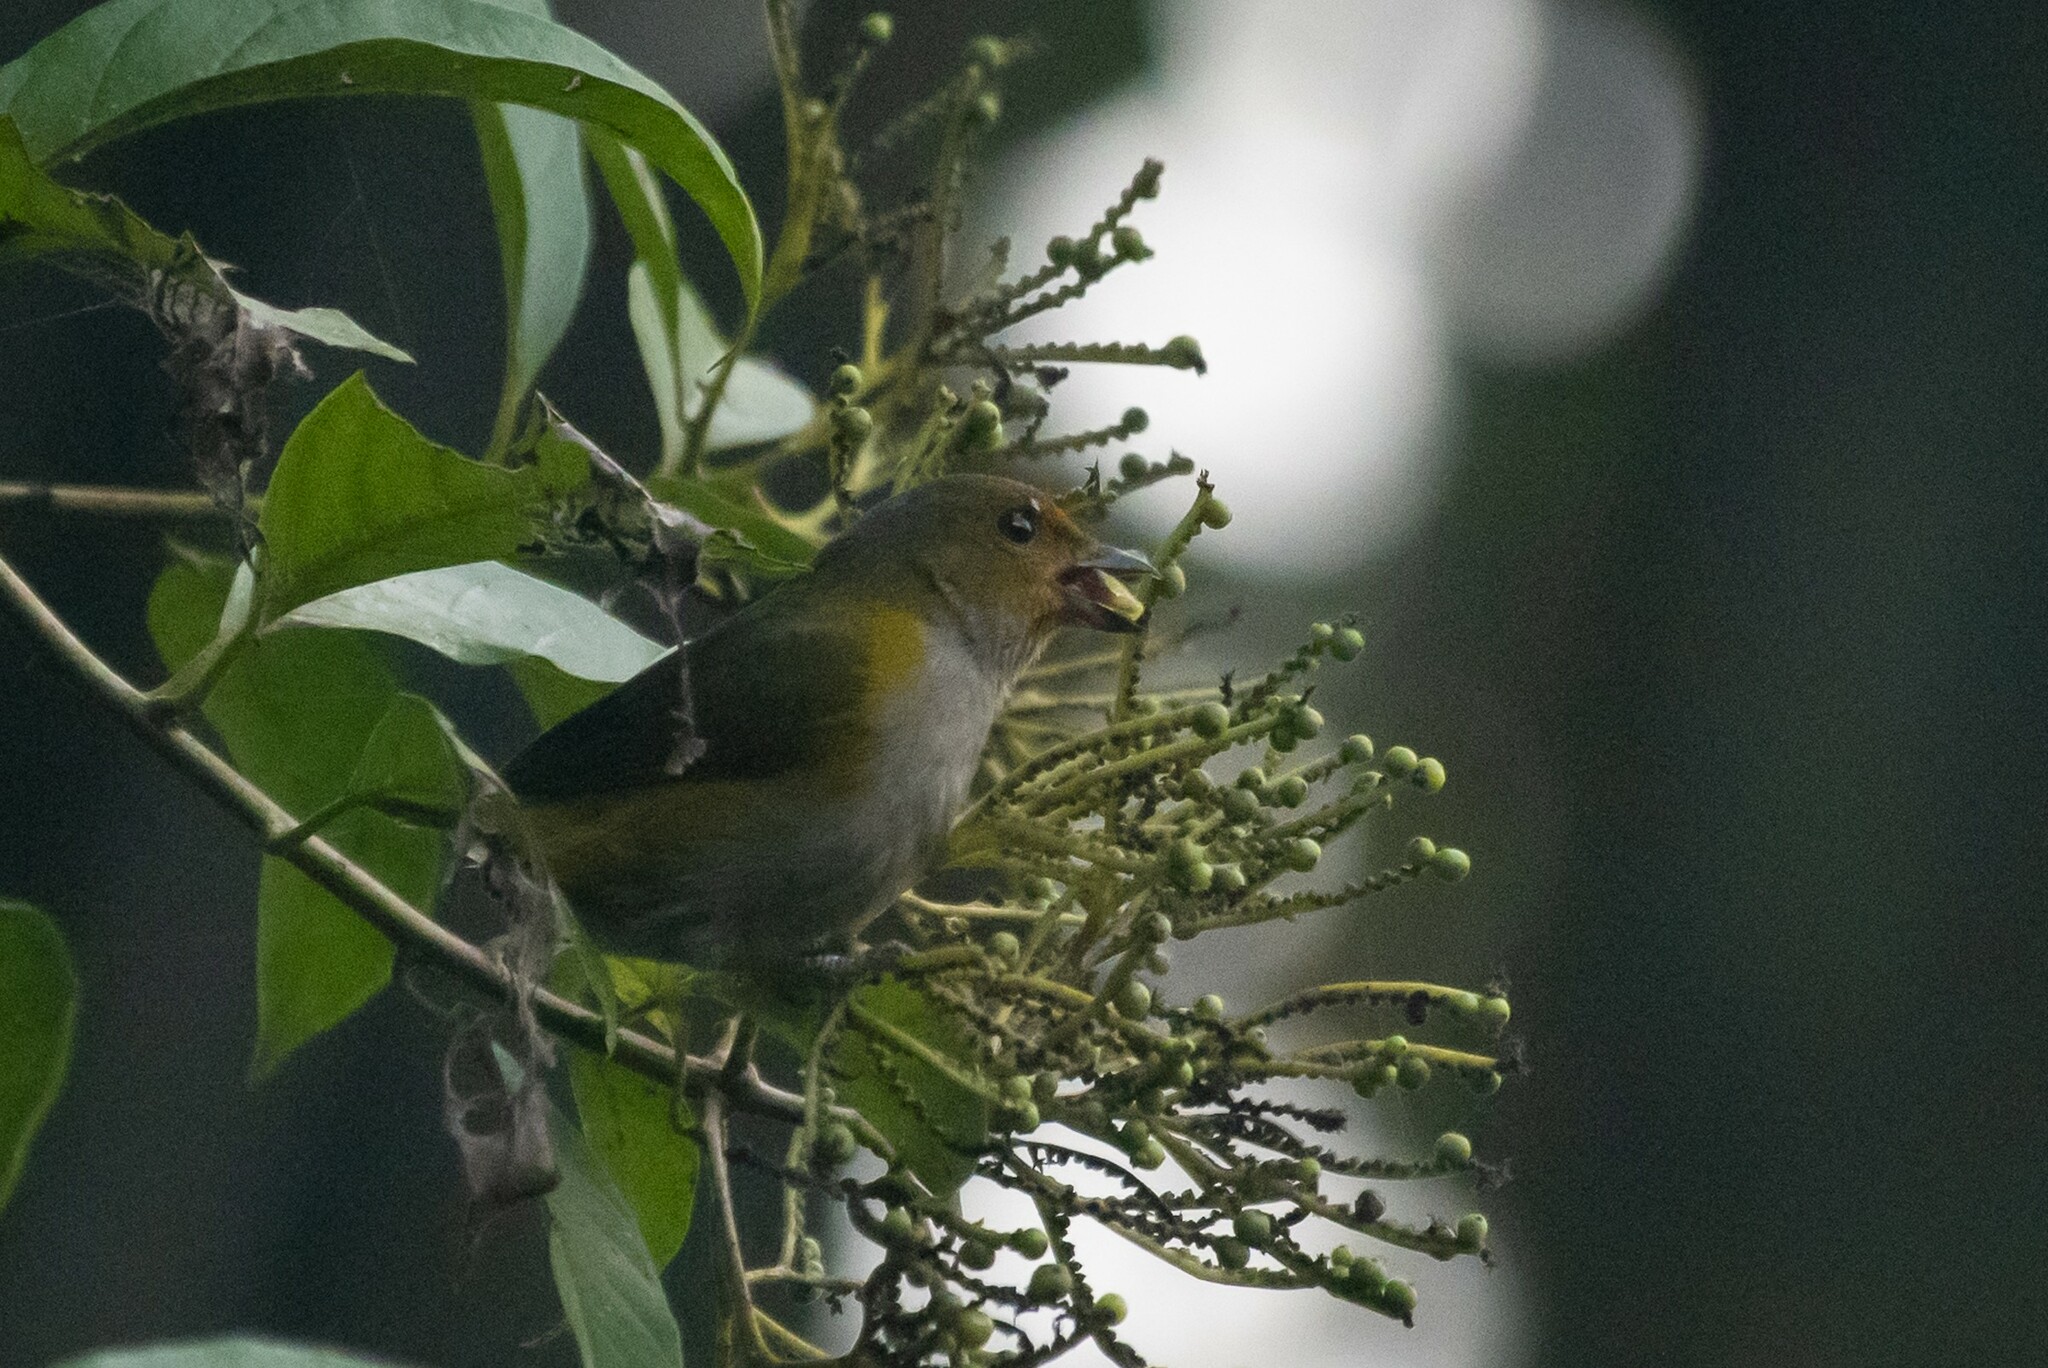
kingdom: Animalia
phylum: Chordata
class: Aves
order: Passeriformes
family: Fringillidae
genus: Euphonia
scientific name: Euphonia anneae
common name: Tawny-capped euphonia
